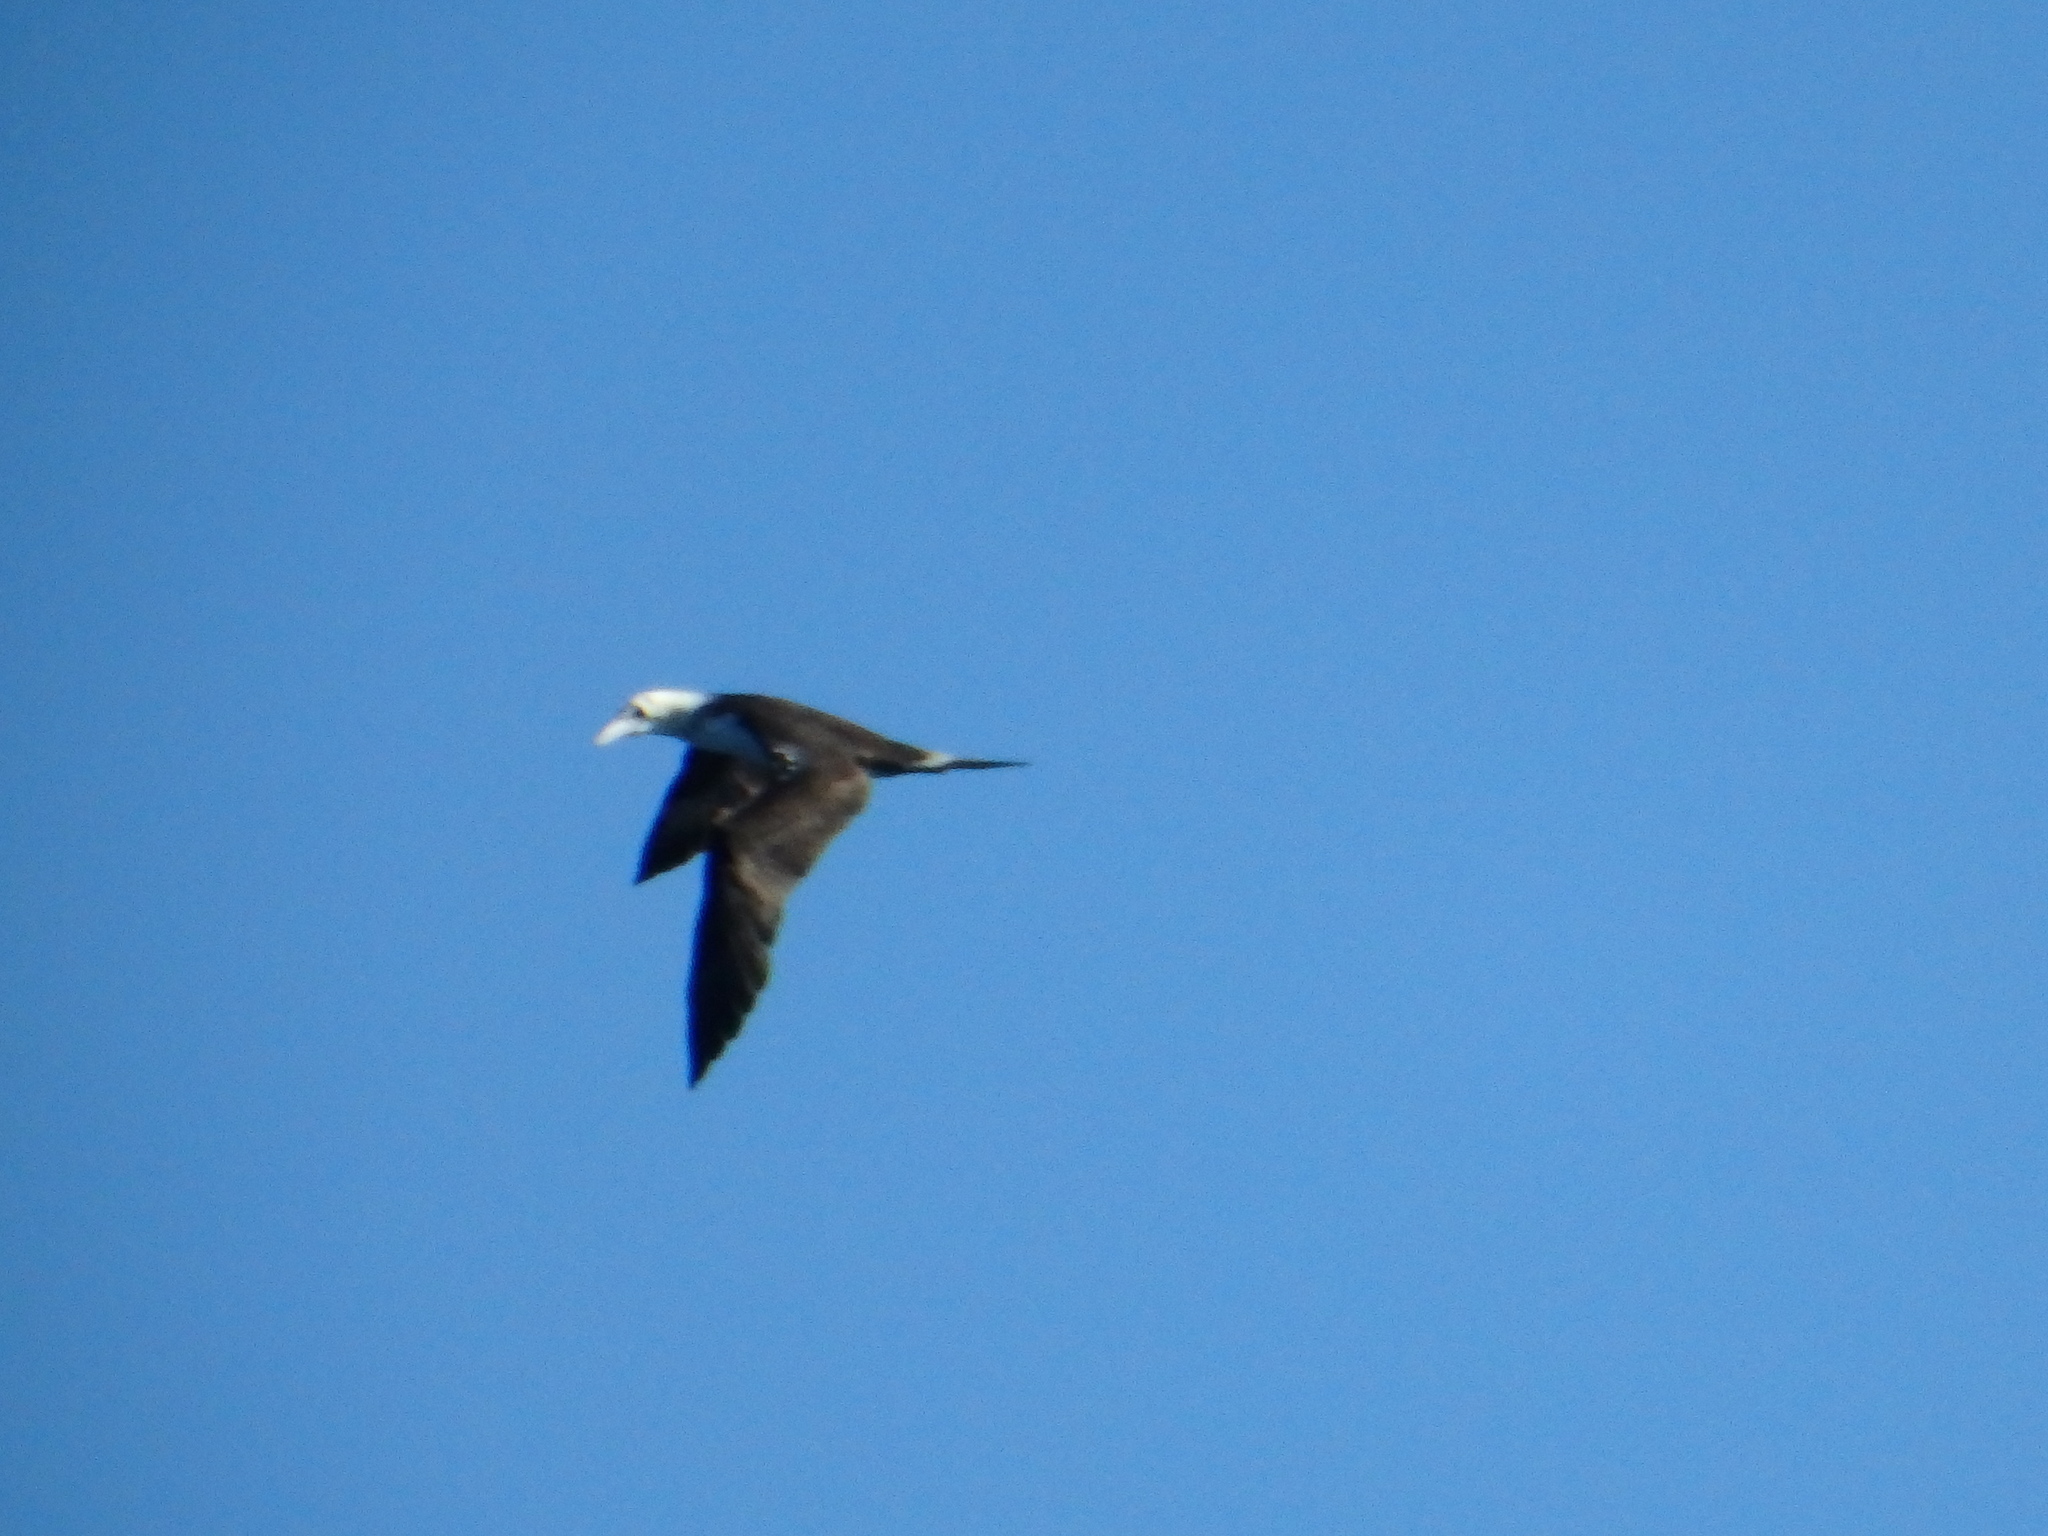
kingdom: Animalia
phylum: Chordata
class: Aves
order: Suliformes
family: Sulidae
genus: Morus
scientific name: Morus bassanus
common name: Northern gannet
